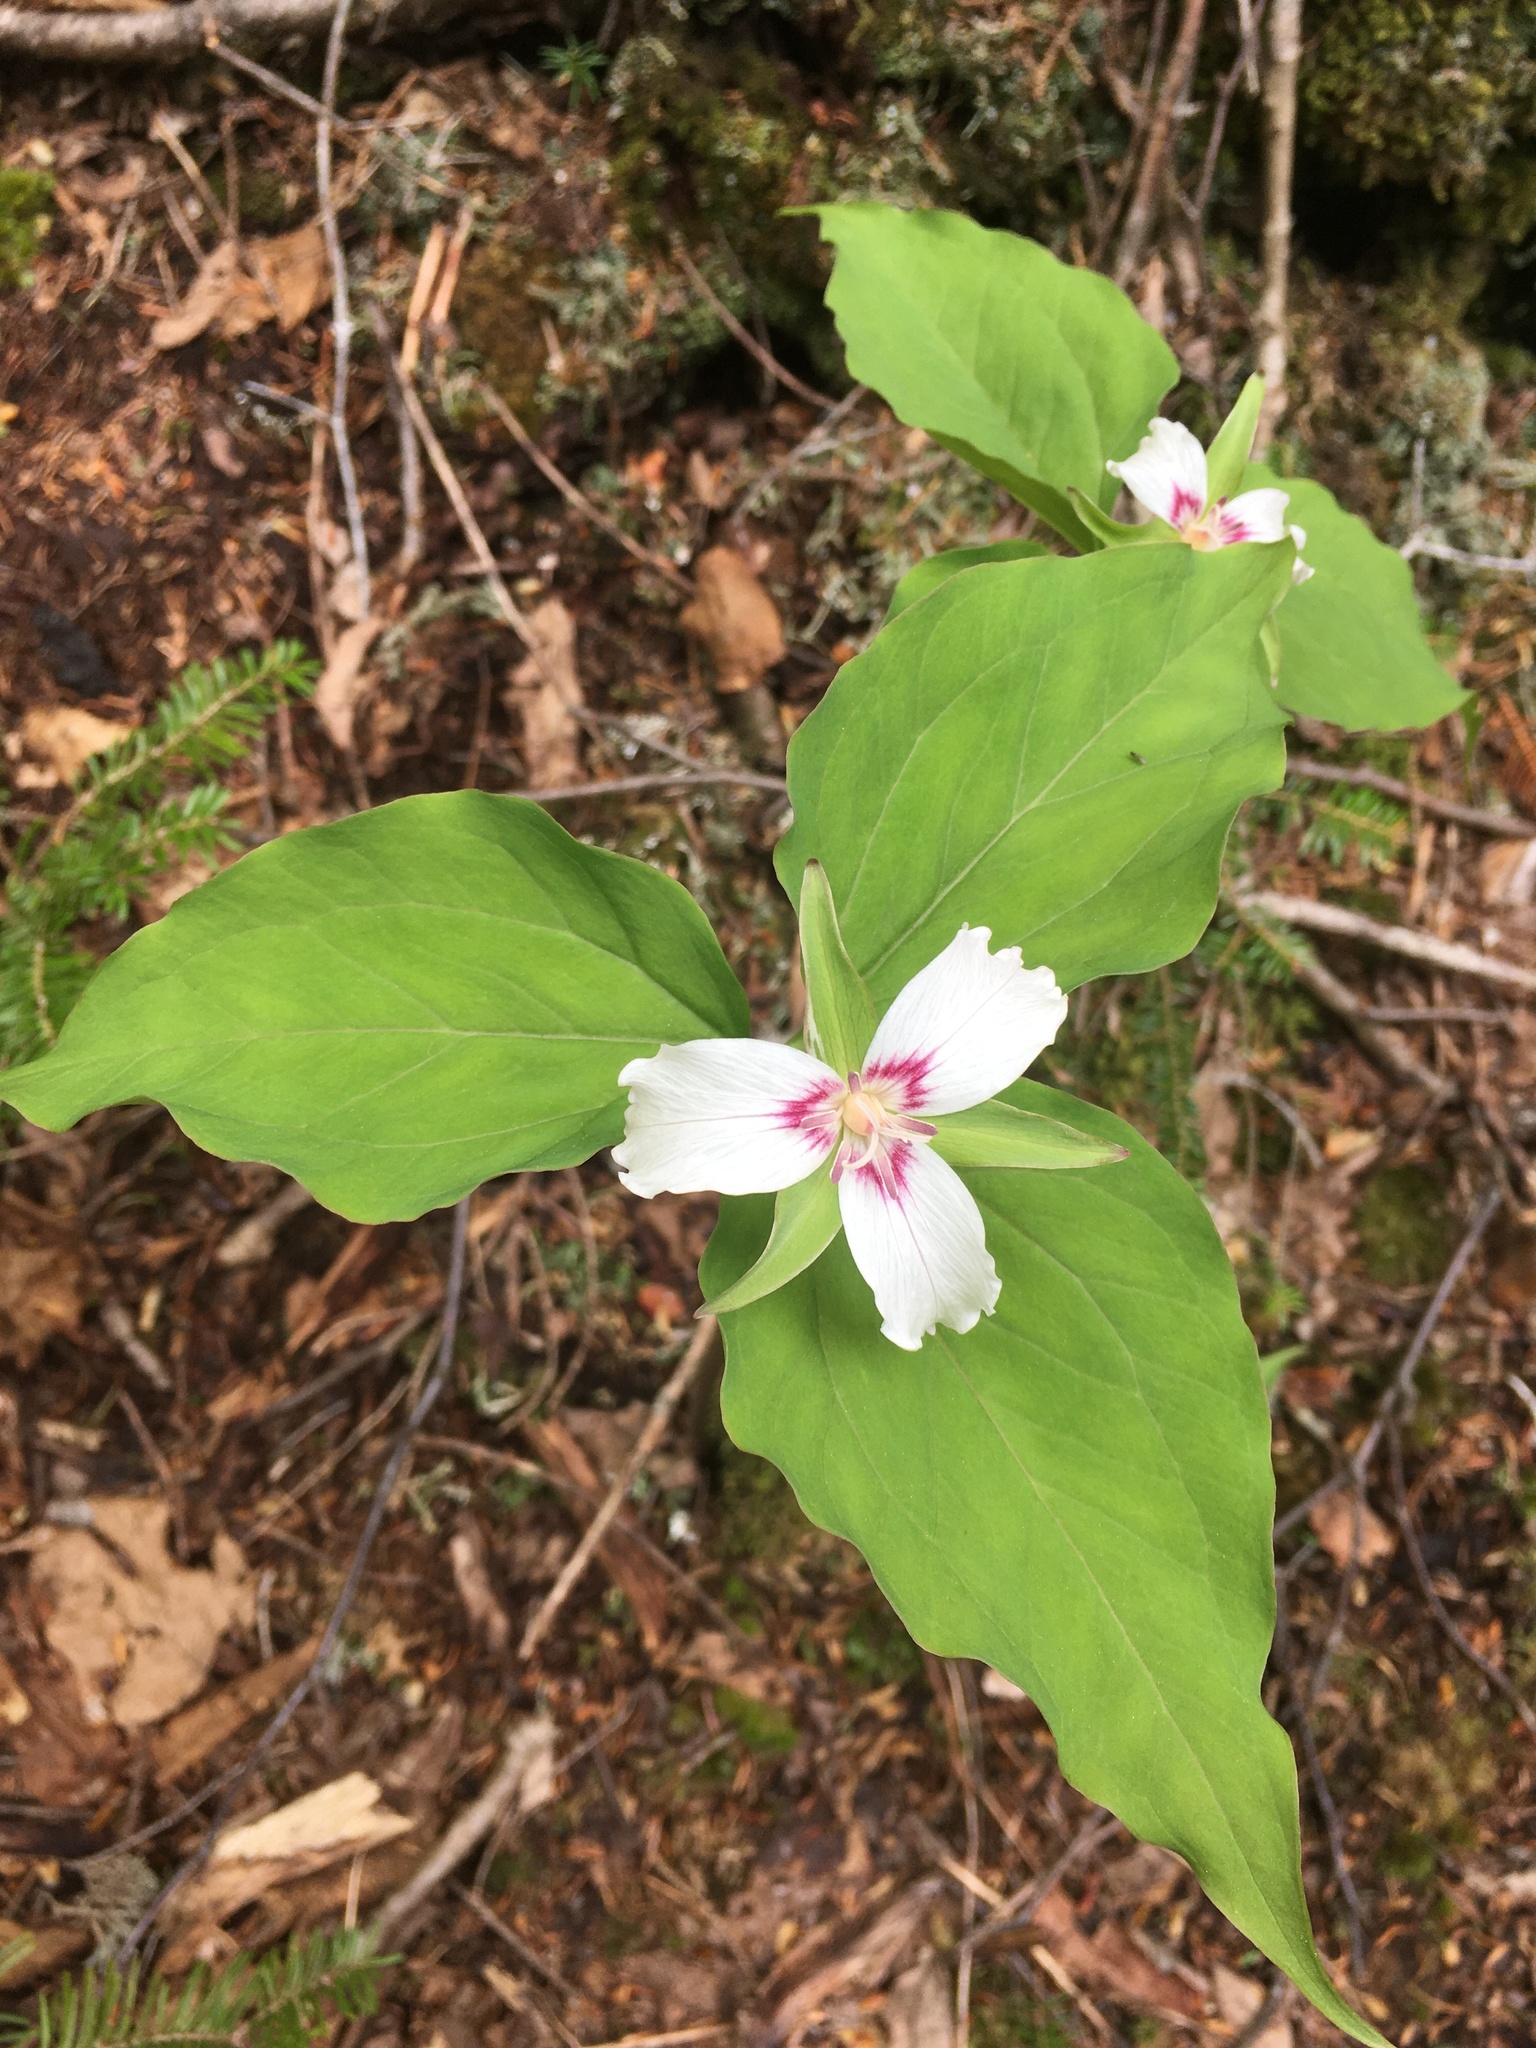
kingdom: Plantae
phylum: Tracheophyta
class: Liliopsida
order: Liliales
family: Melanthiaceae
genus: Trillium
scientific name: Trillium undulatum
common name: Paint trillium
